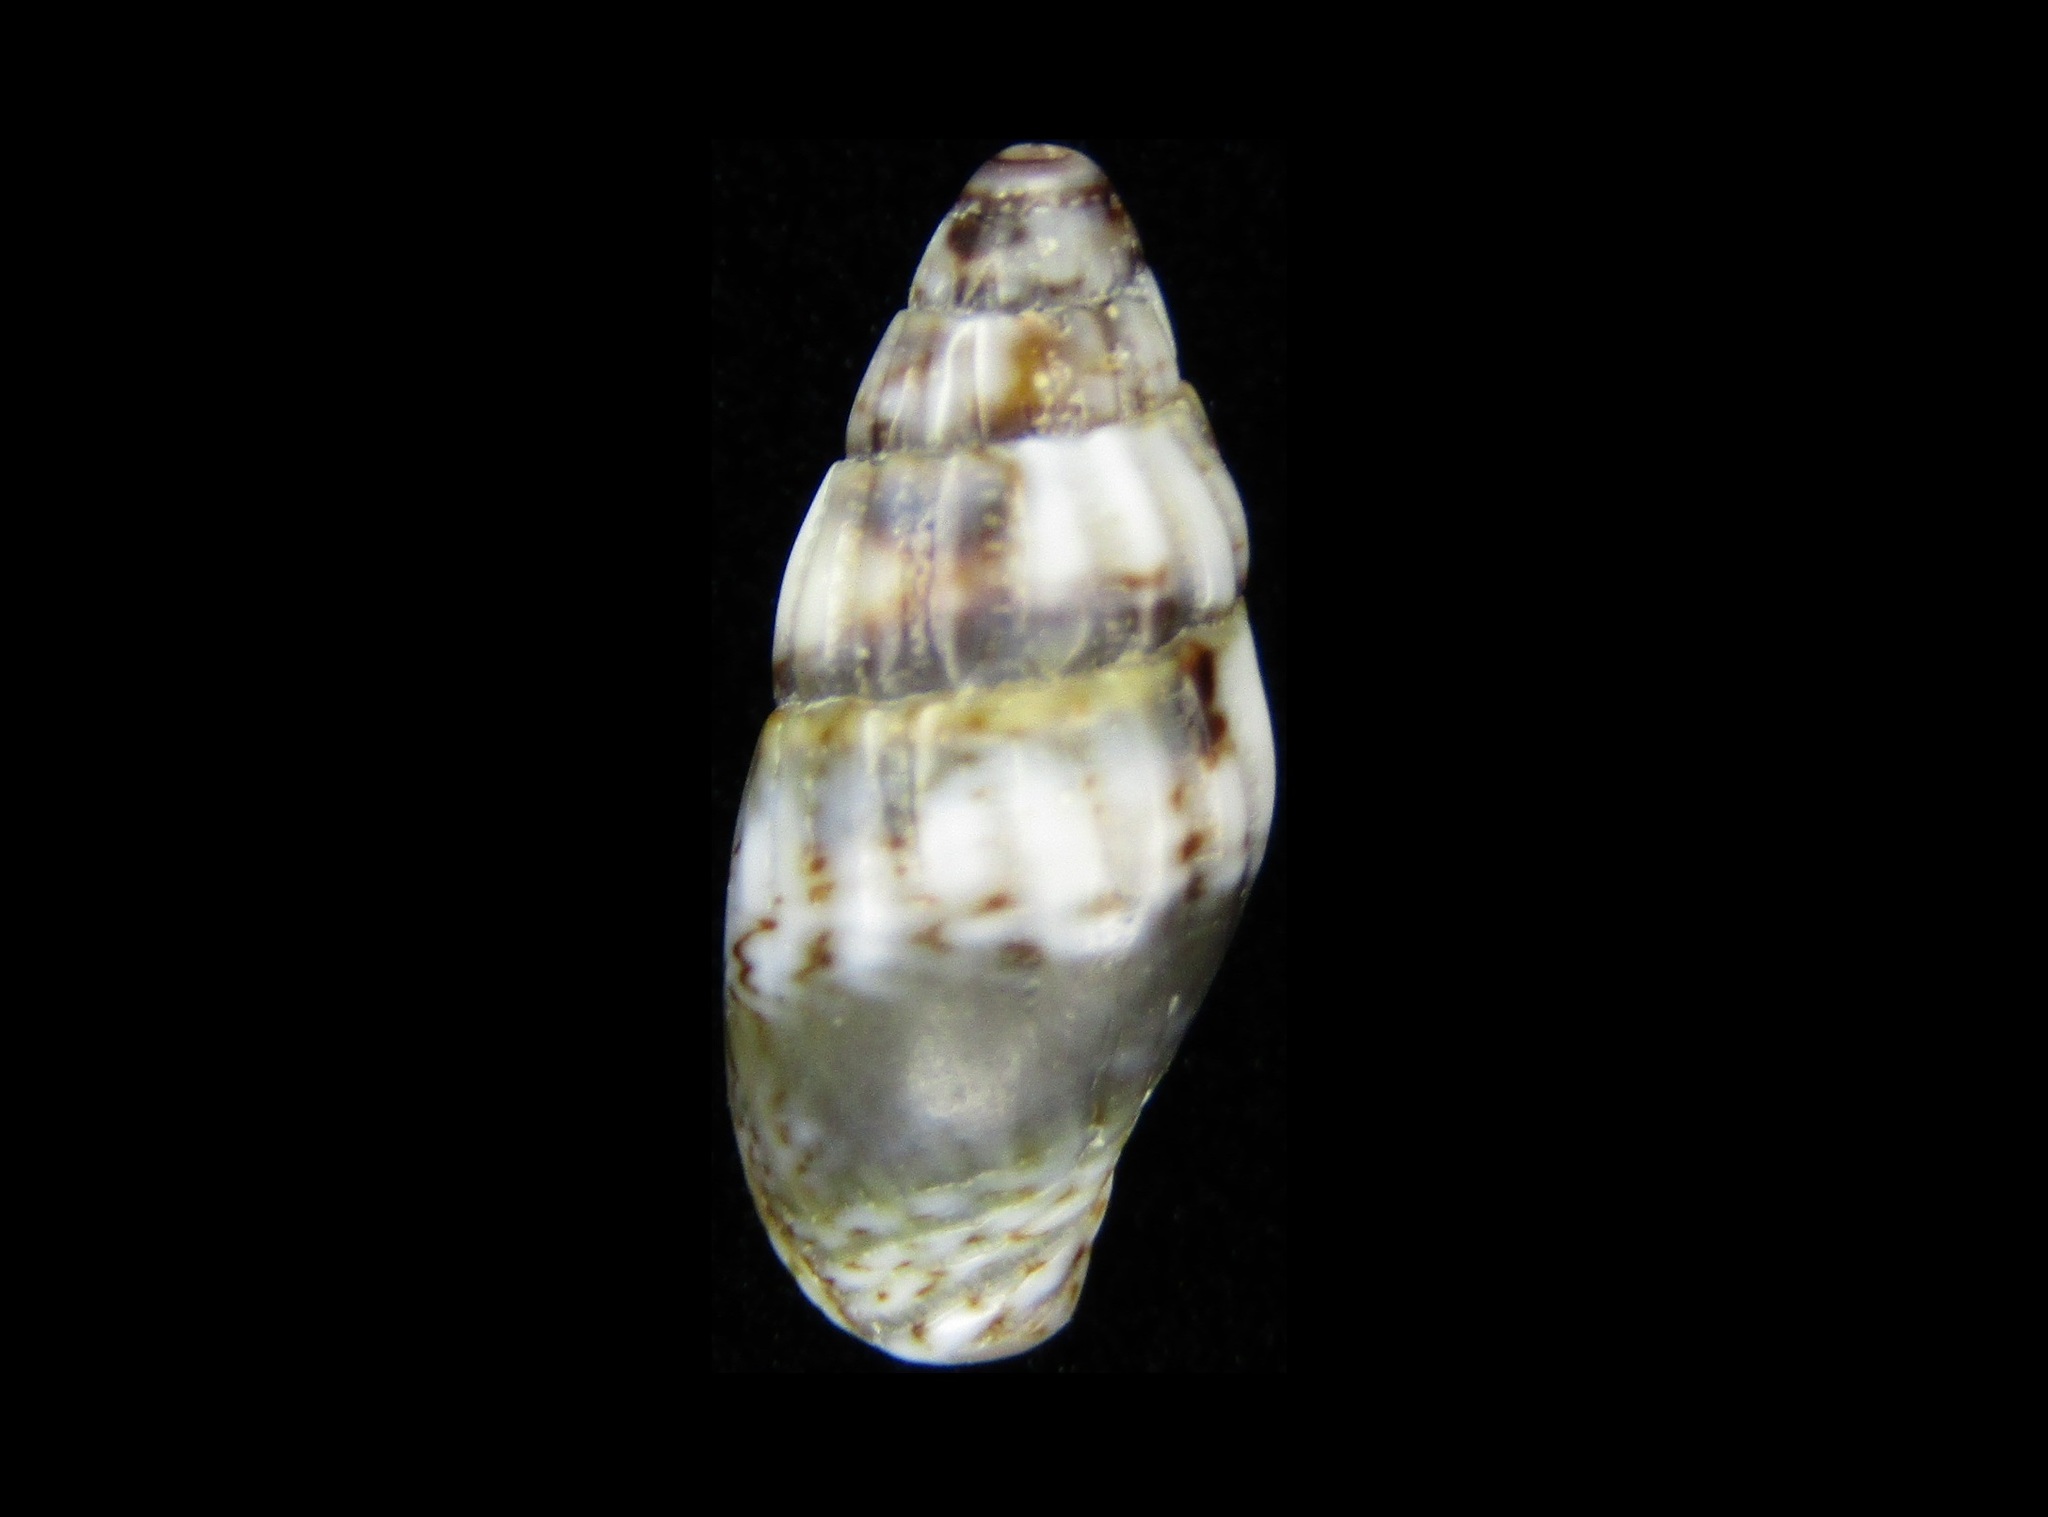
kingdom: Animalia
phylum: Mollusca
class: Gastropoda
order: Neogastropoda
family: Costellariidae
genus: Vexillum
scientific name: Vexillum inerme
